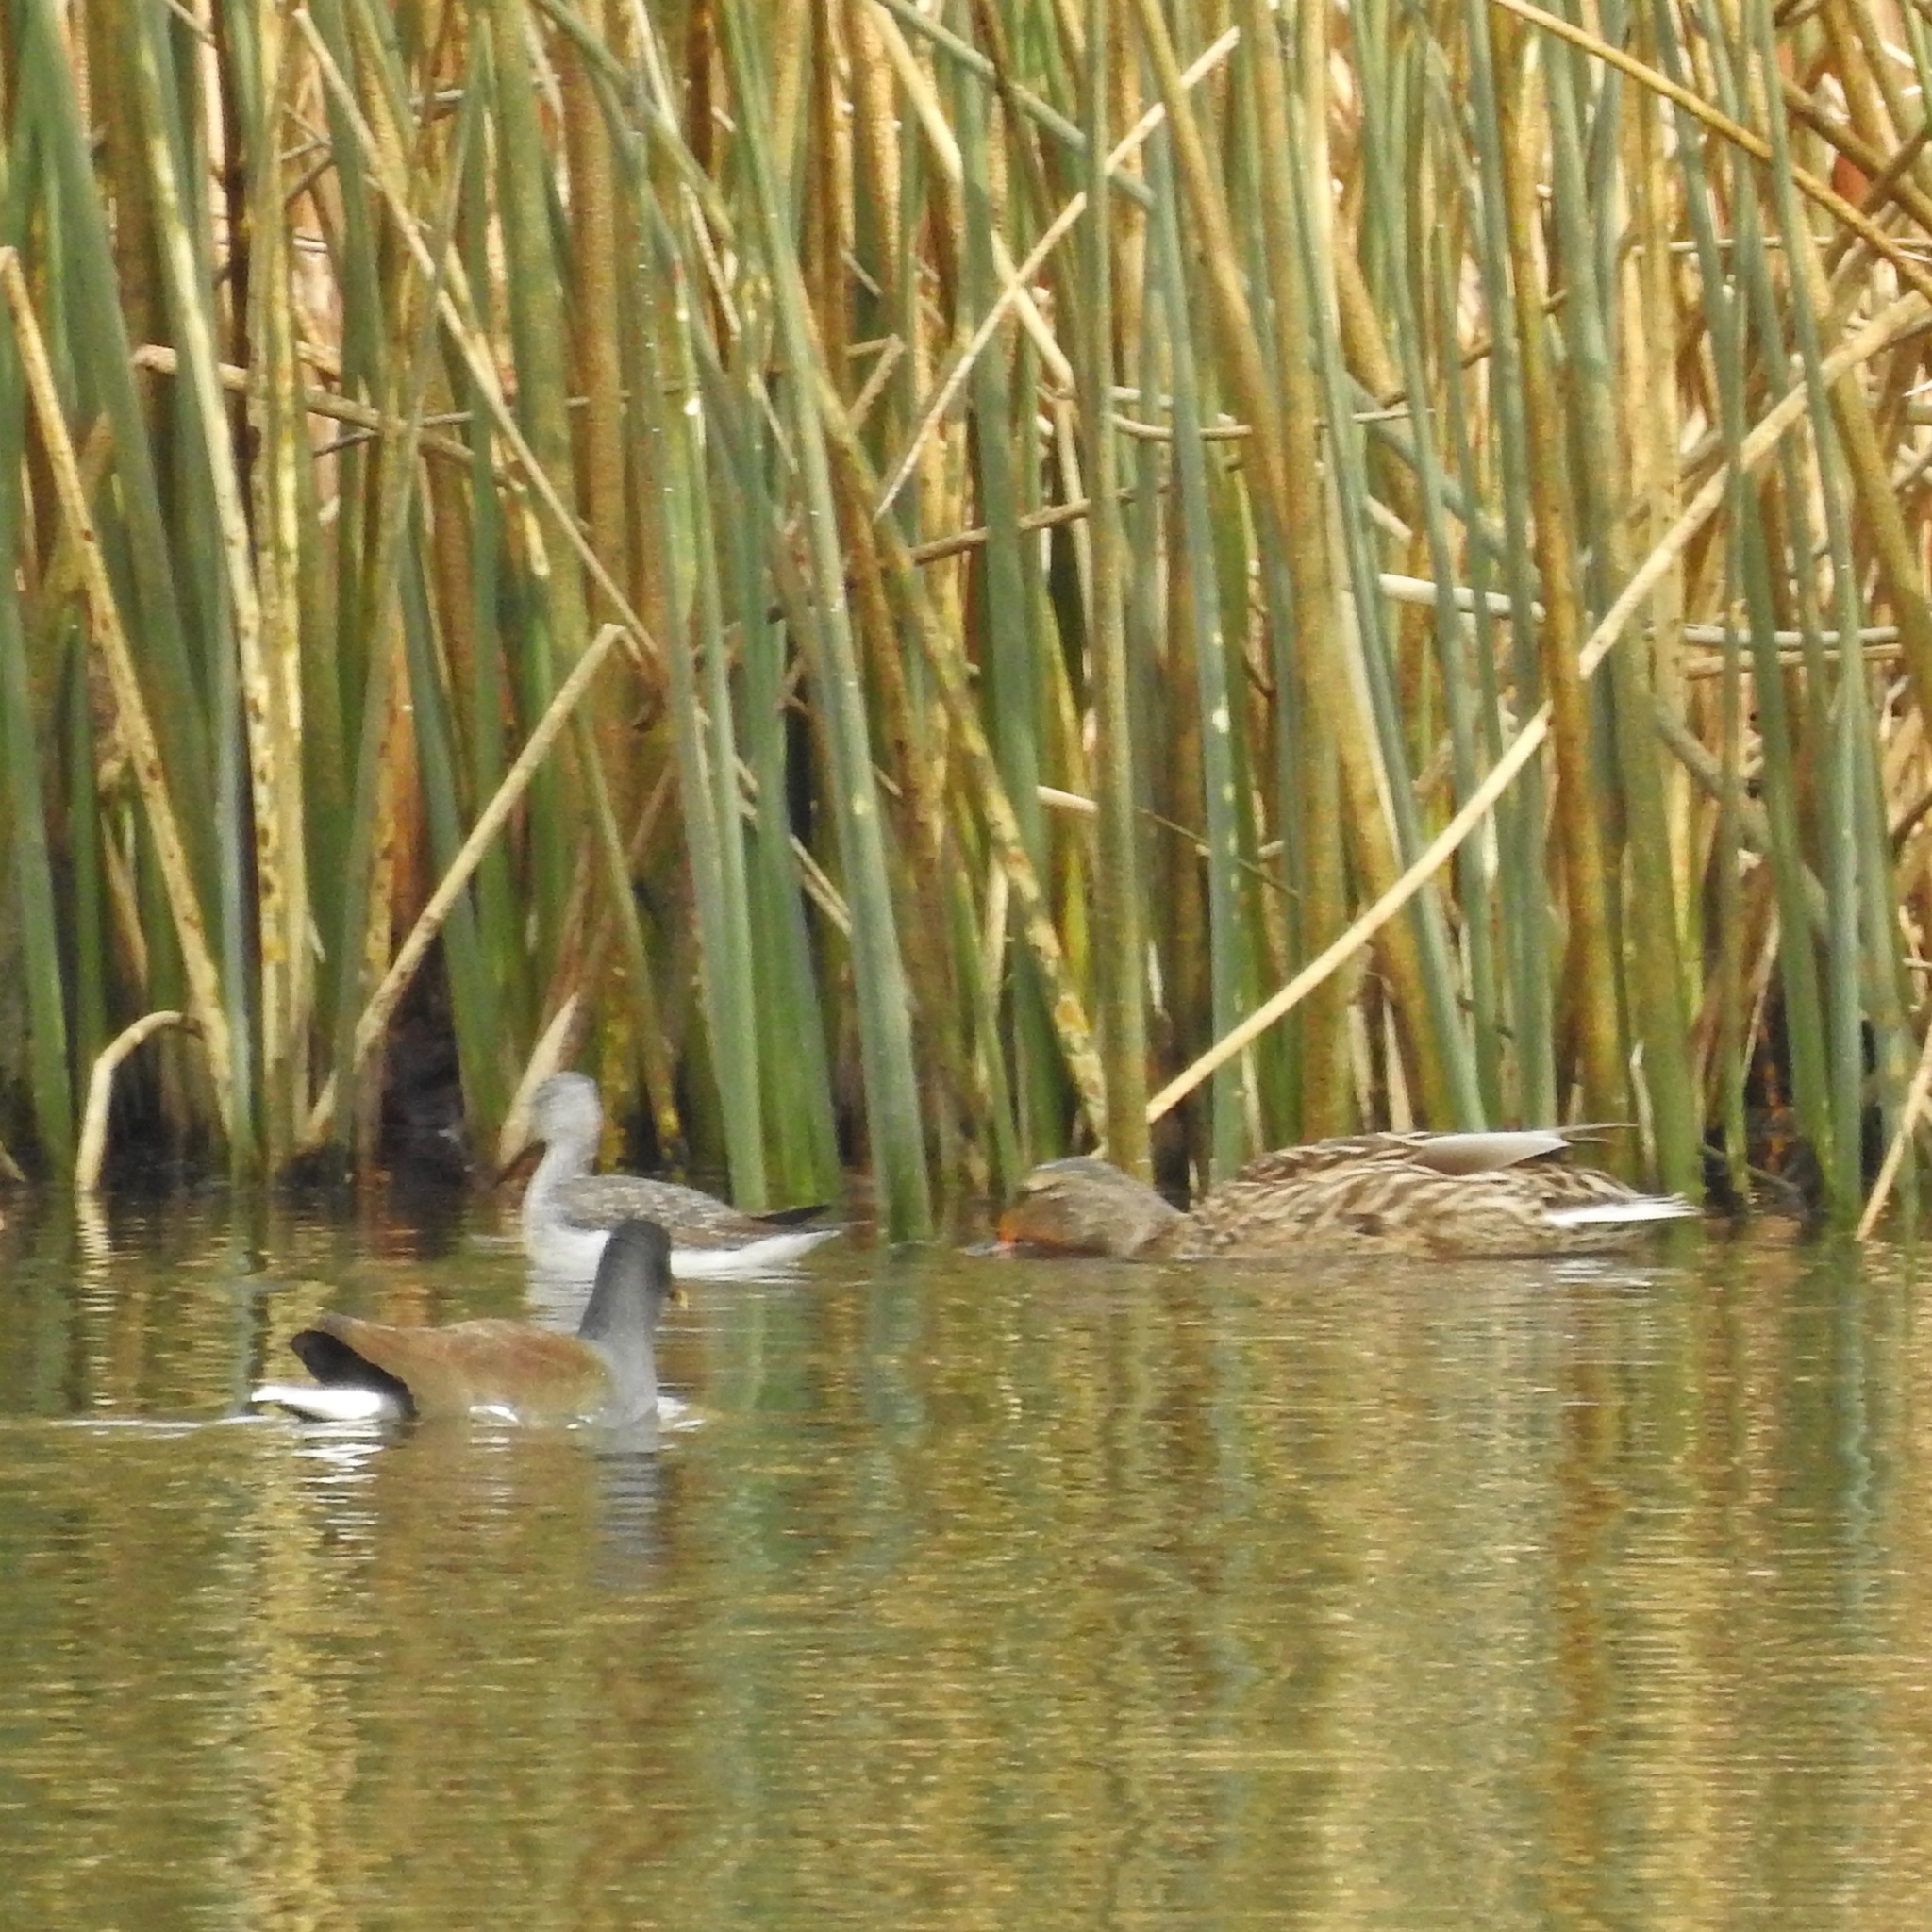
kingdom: Animalia
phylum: Chordata
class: Aves
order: Charadriiformes
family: Scolopacidae
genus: Tringa
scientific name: Tringa melanoleuca
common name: Greater yellowlegs
